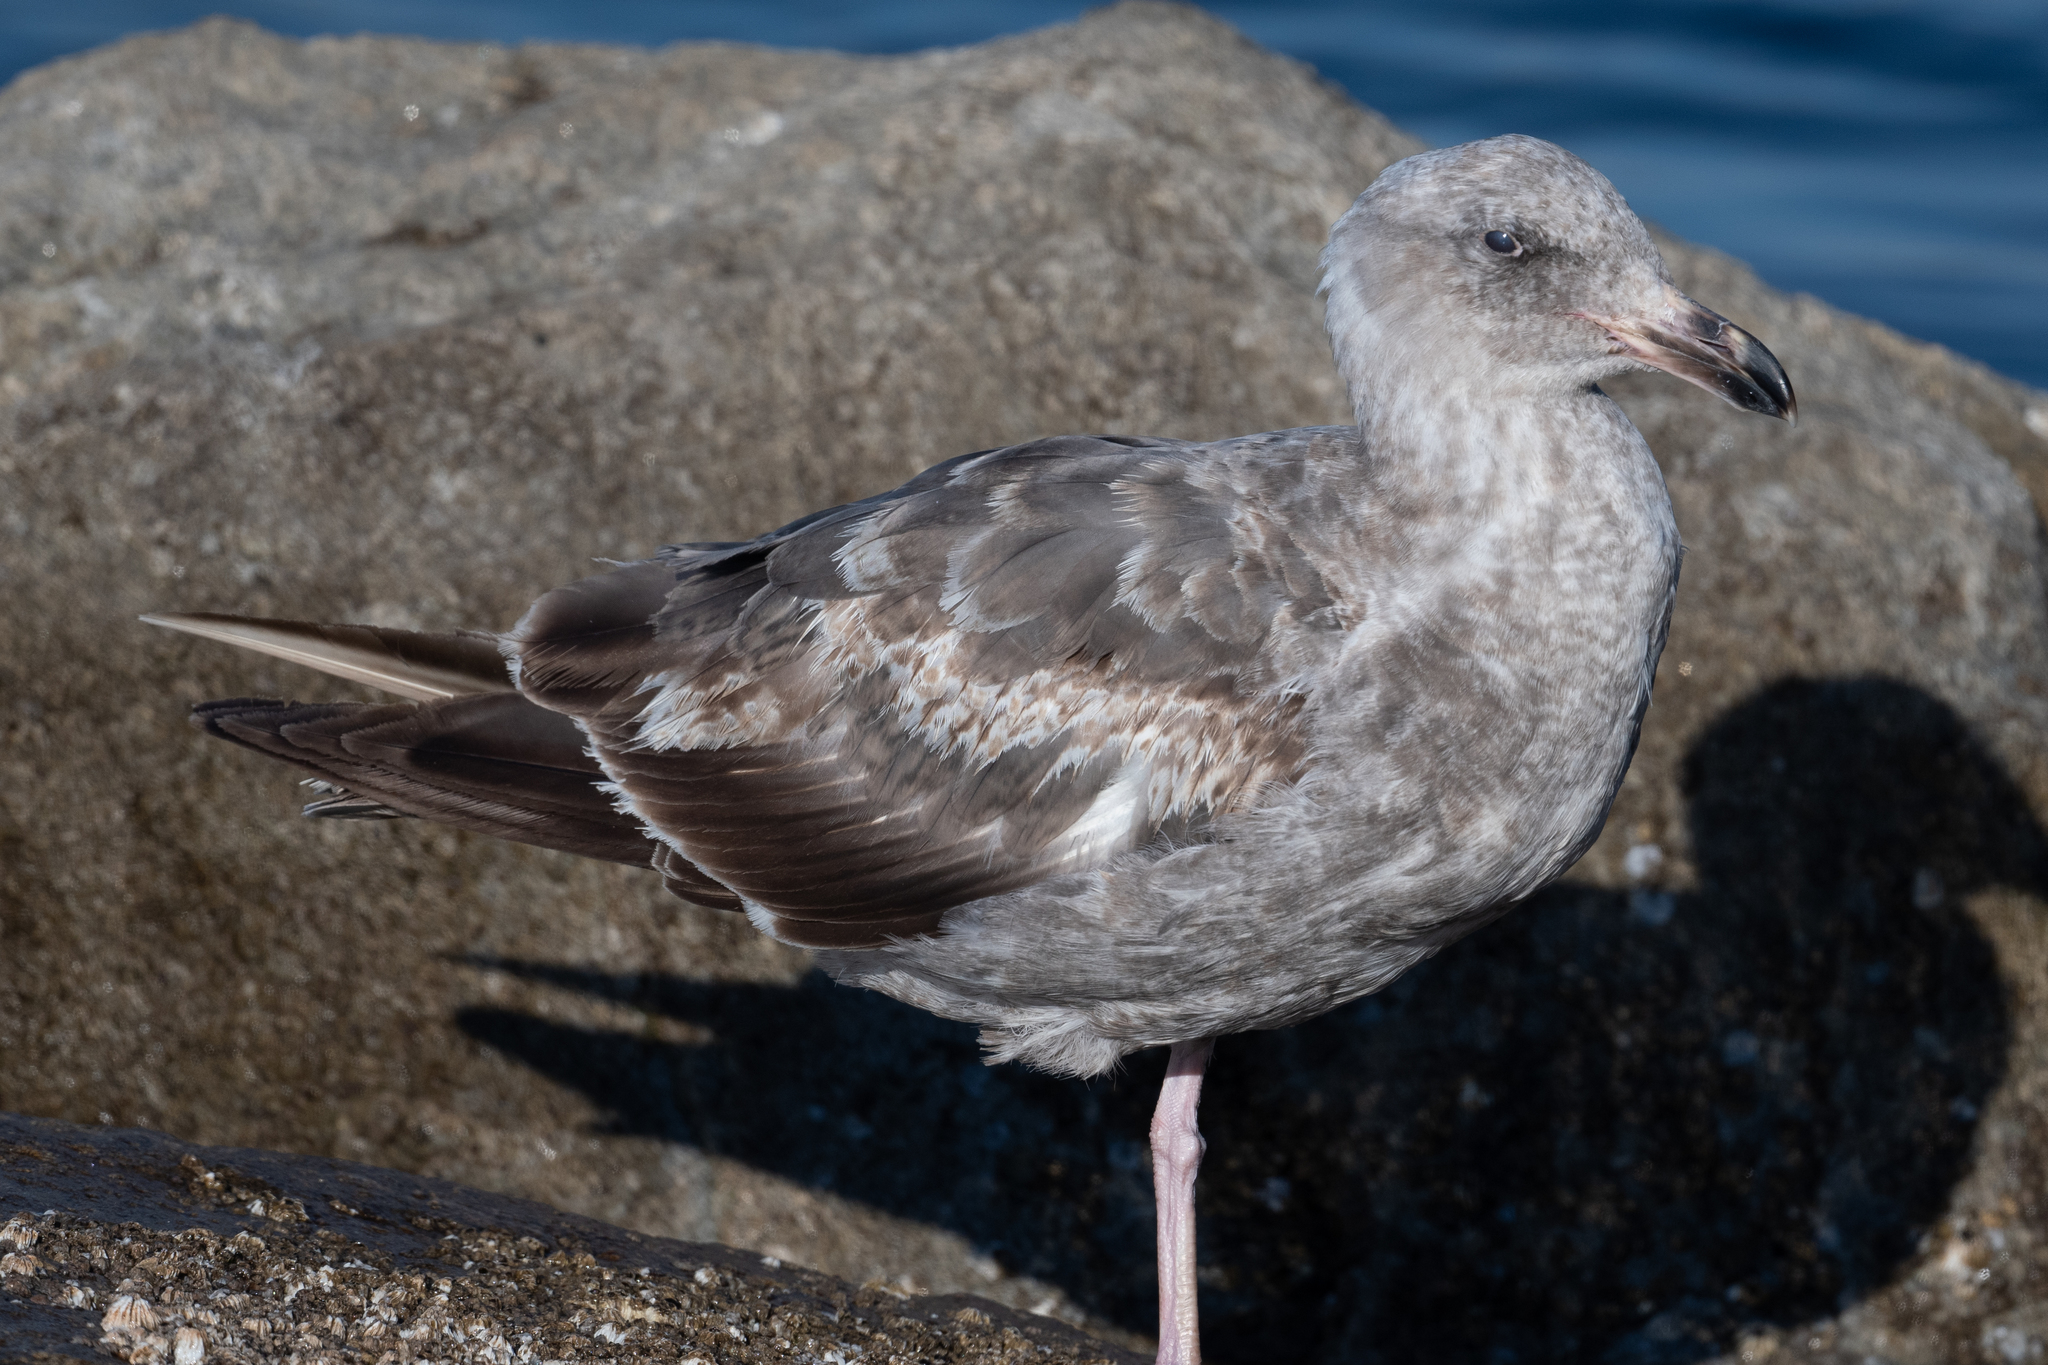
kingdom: Animalia
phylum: Chordata
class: Aves
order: Charadriiformes
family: Laridae
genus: Larus
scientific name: Larus occidentalis
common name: Western gull
